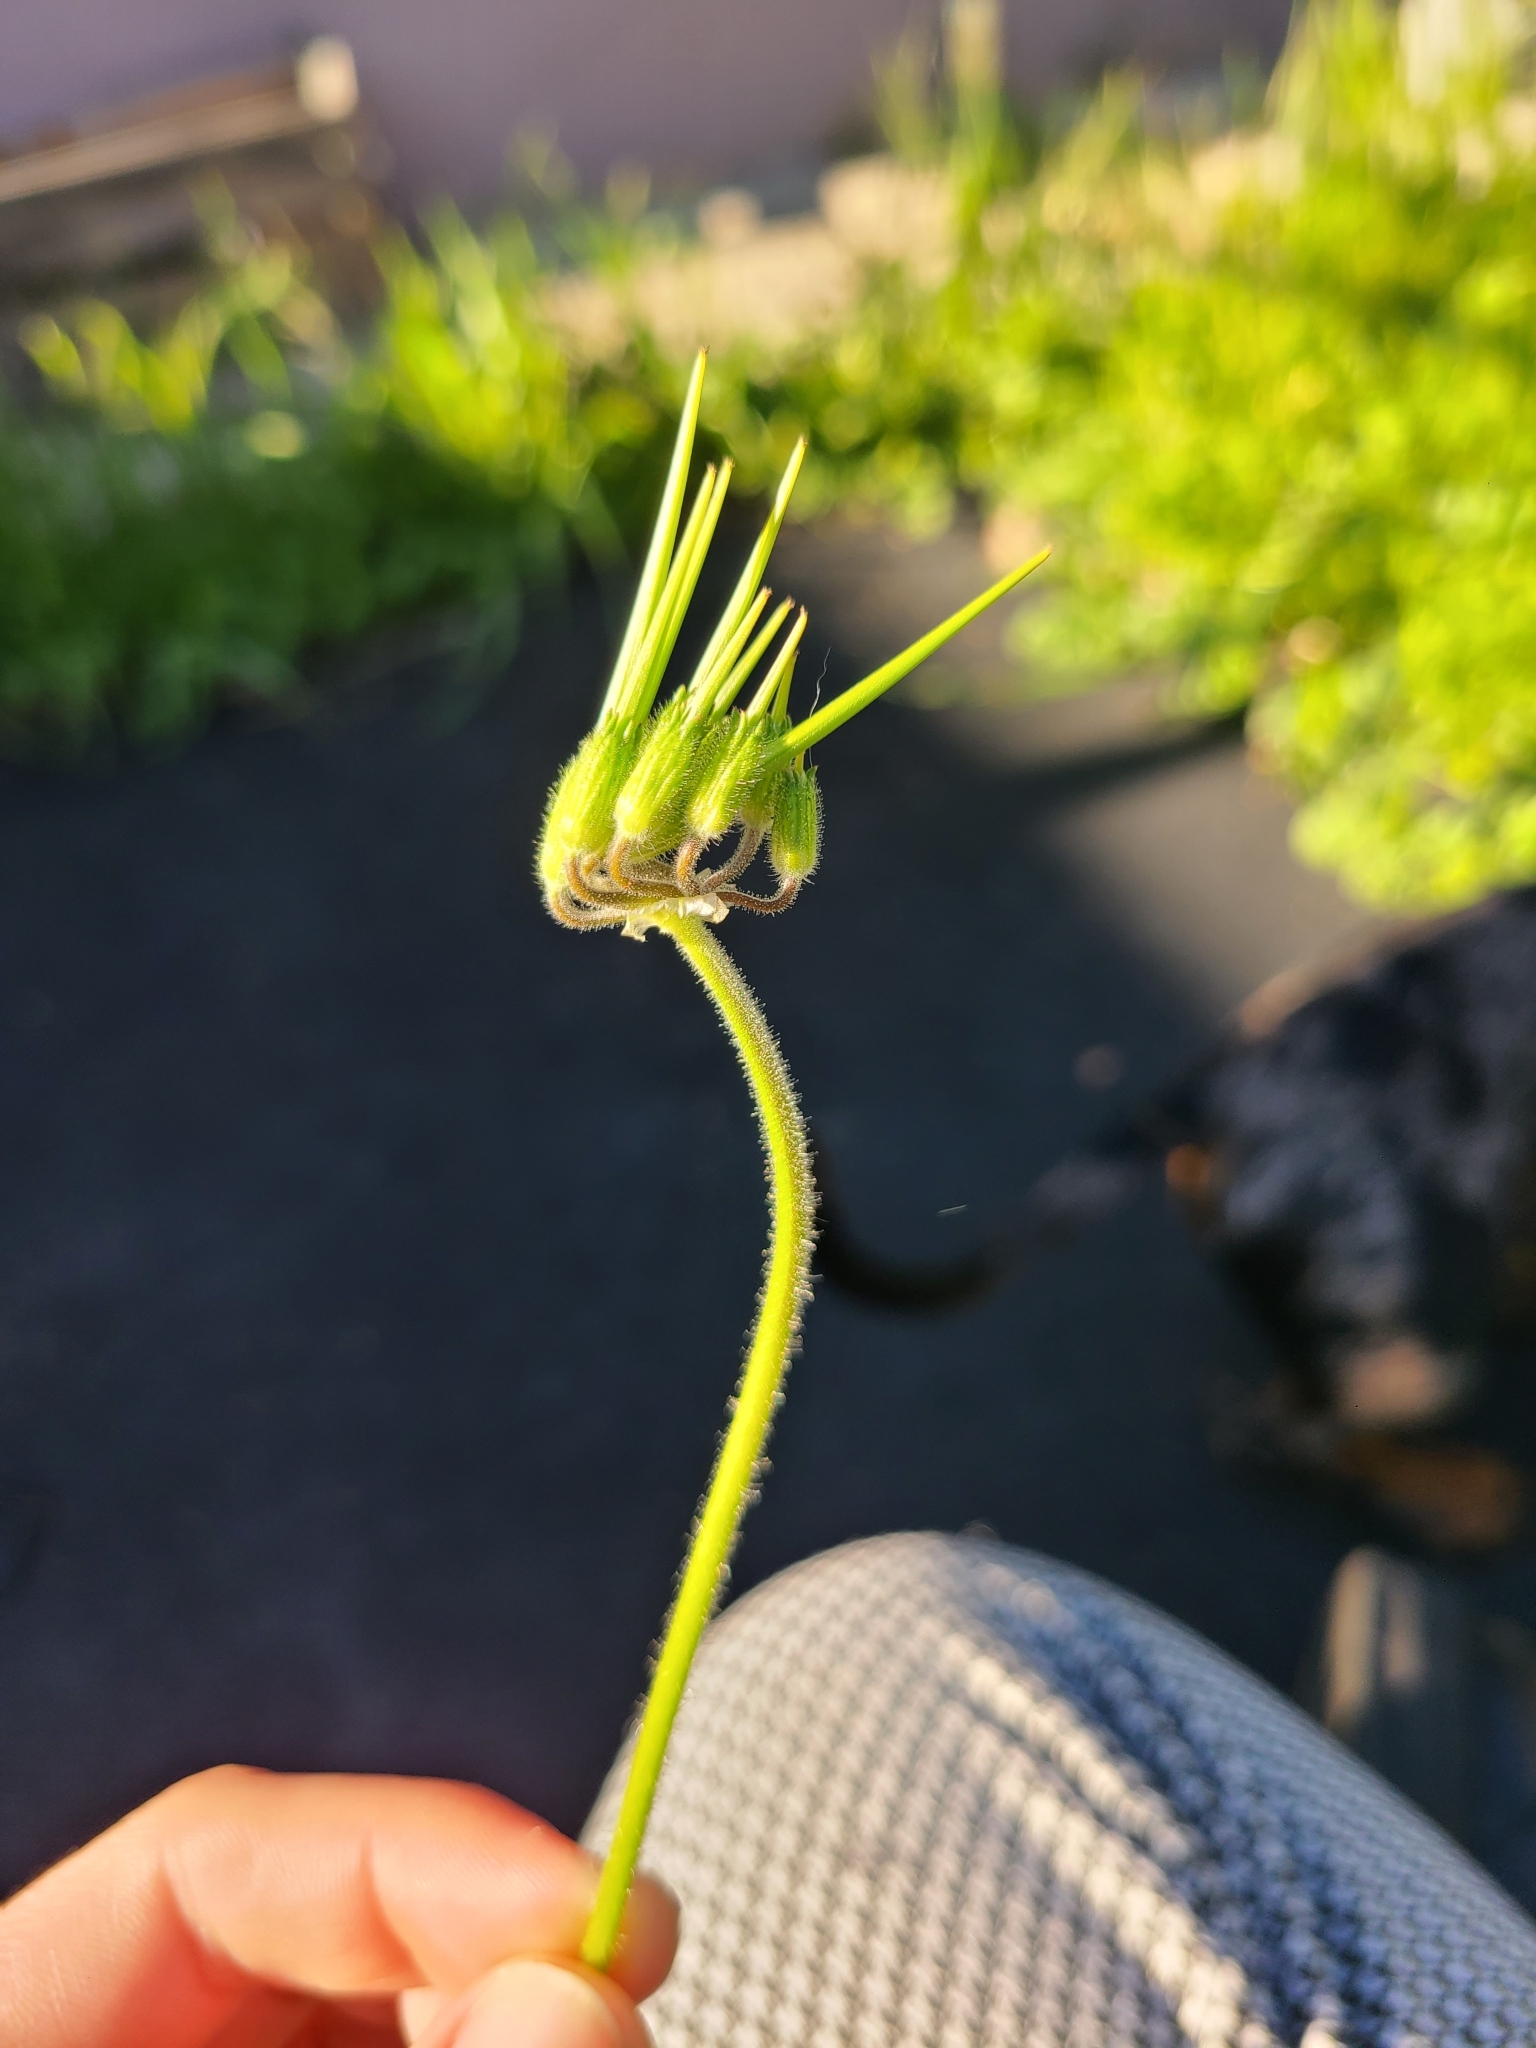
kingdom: Plantae
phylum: Tracheophyta
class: Magnoliopsida
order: Geraniales
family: Geraniaceae
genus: Erodium
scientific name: Erodium moschatum
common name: Musk stork's-bill
